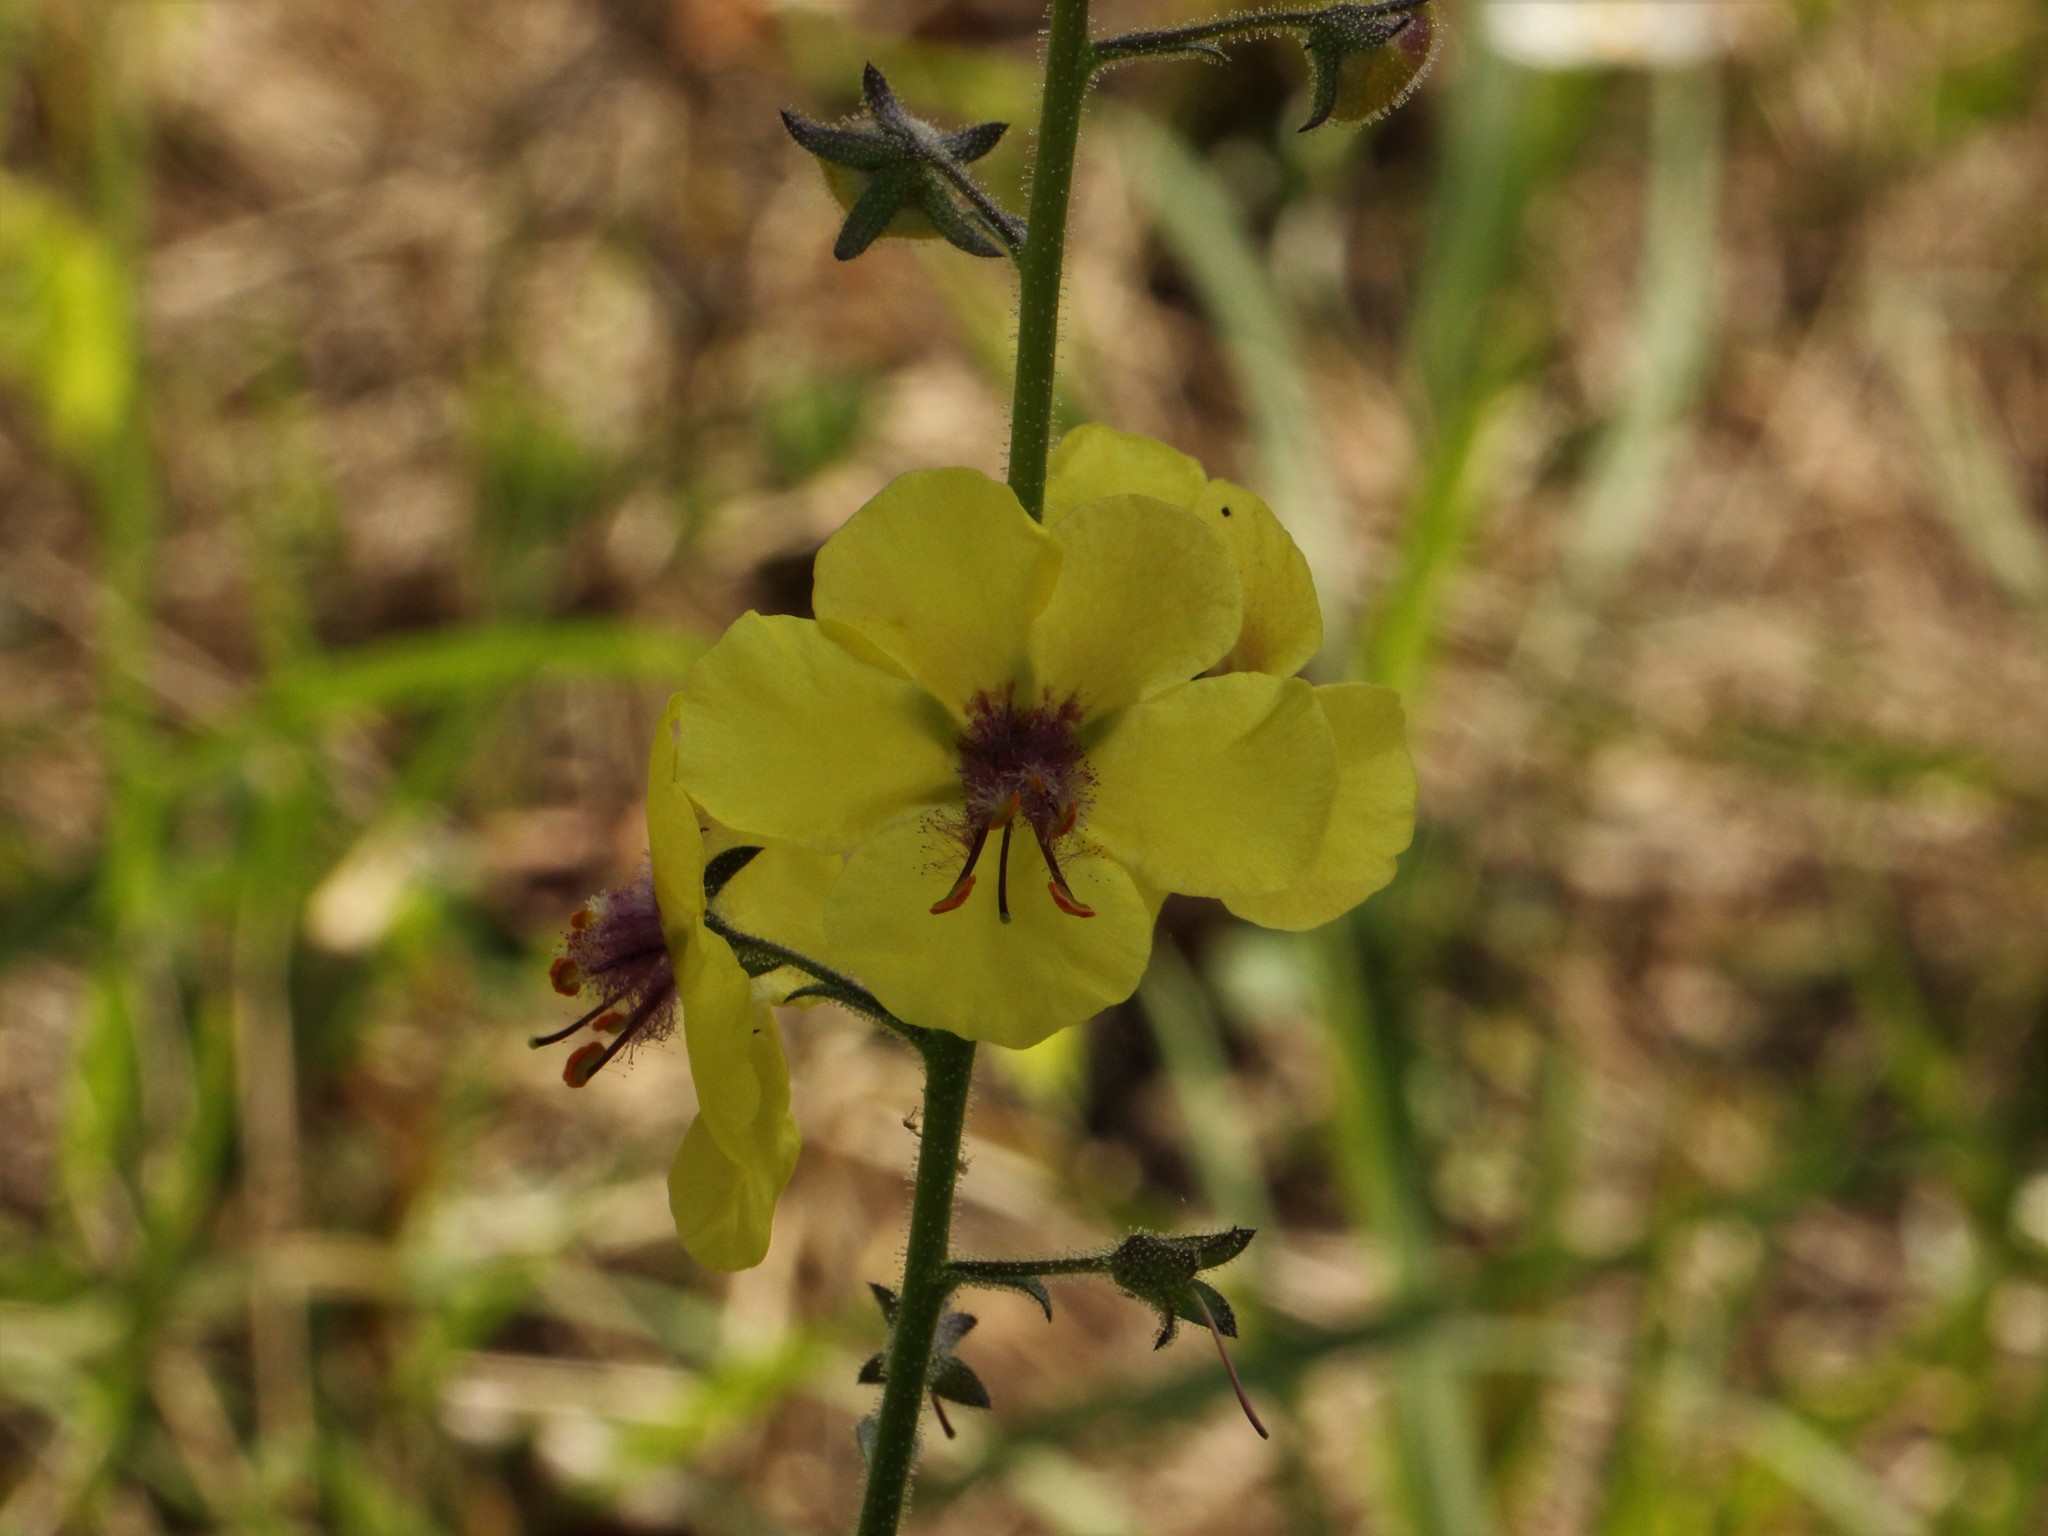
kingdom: Plantae
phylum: Tracheophyta
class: Magnoliopsida
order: Lamiales
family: Scrophulariaceae
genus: Verbascum
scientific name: Verbascum blattaria
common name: Moth mullein
